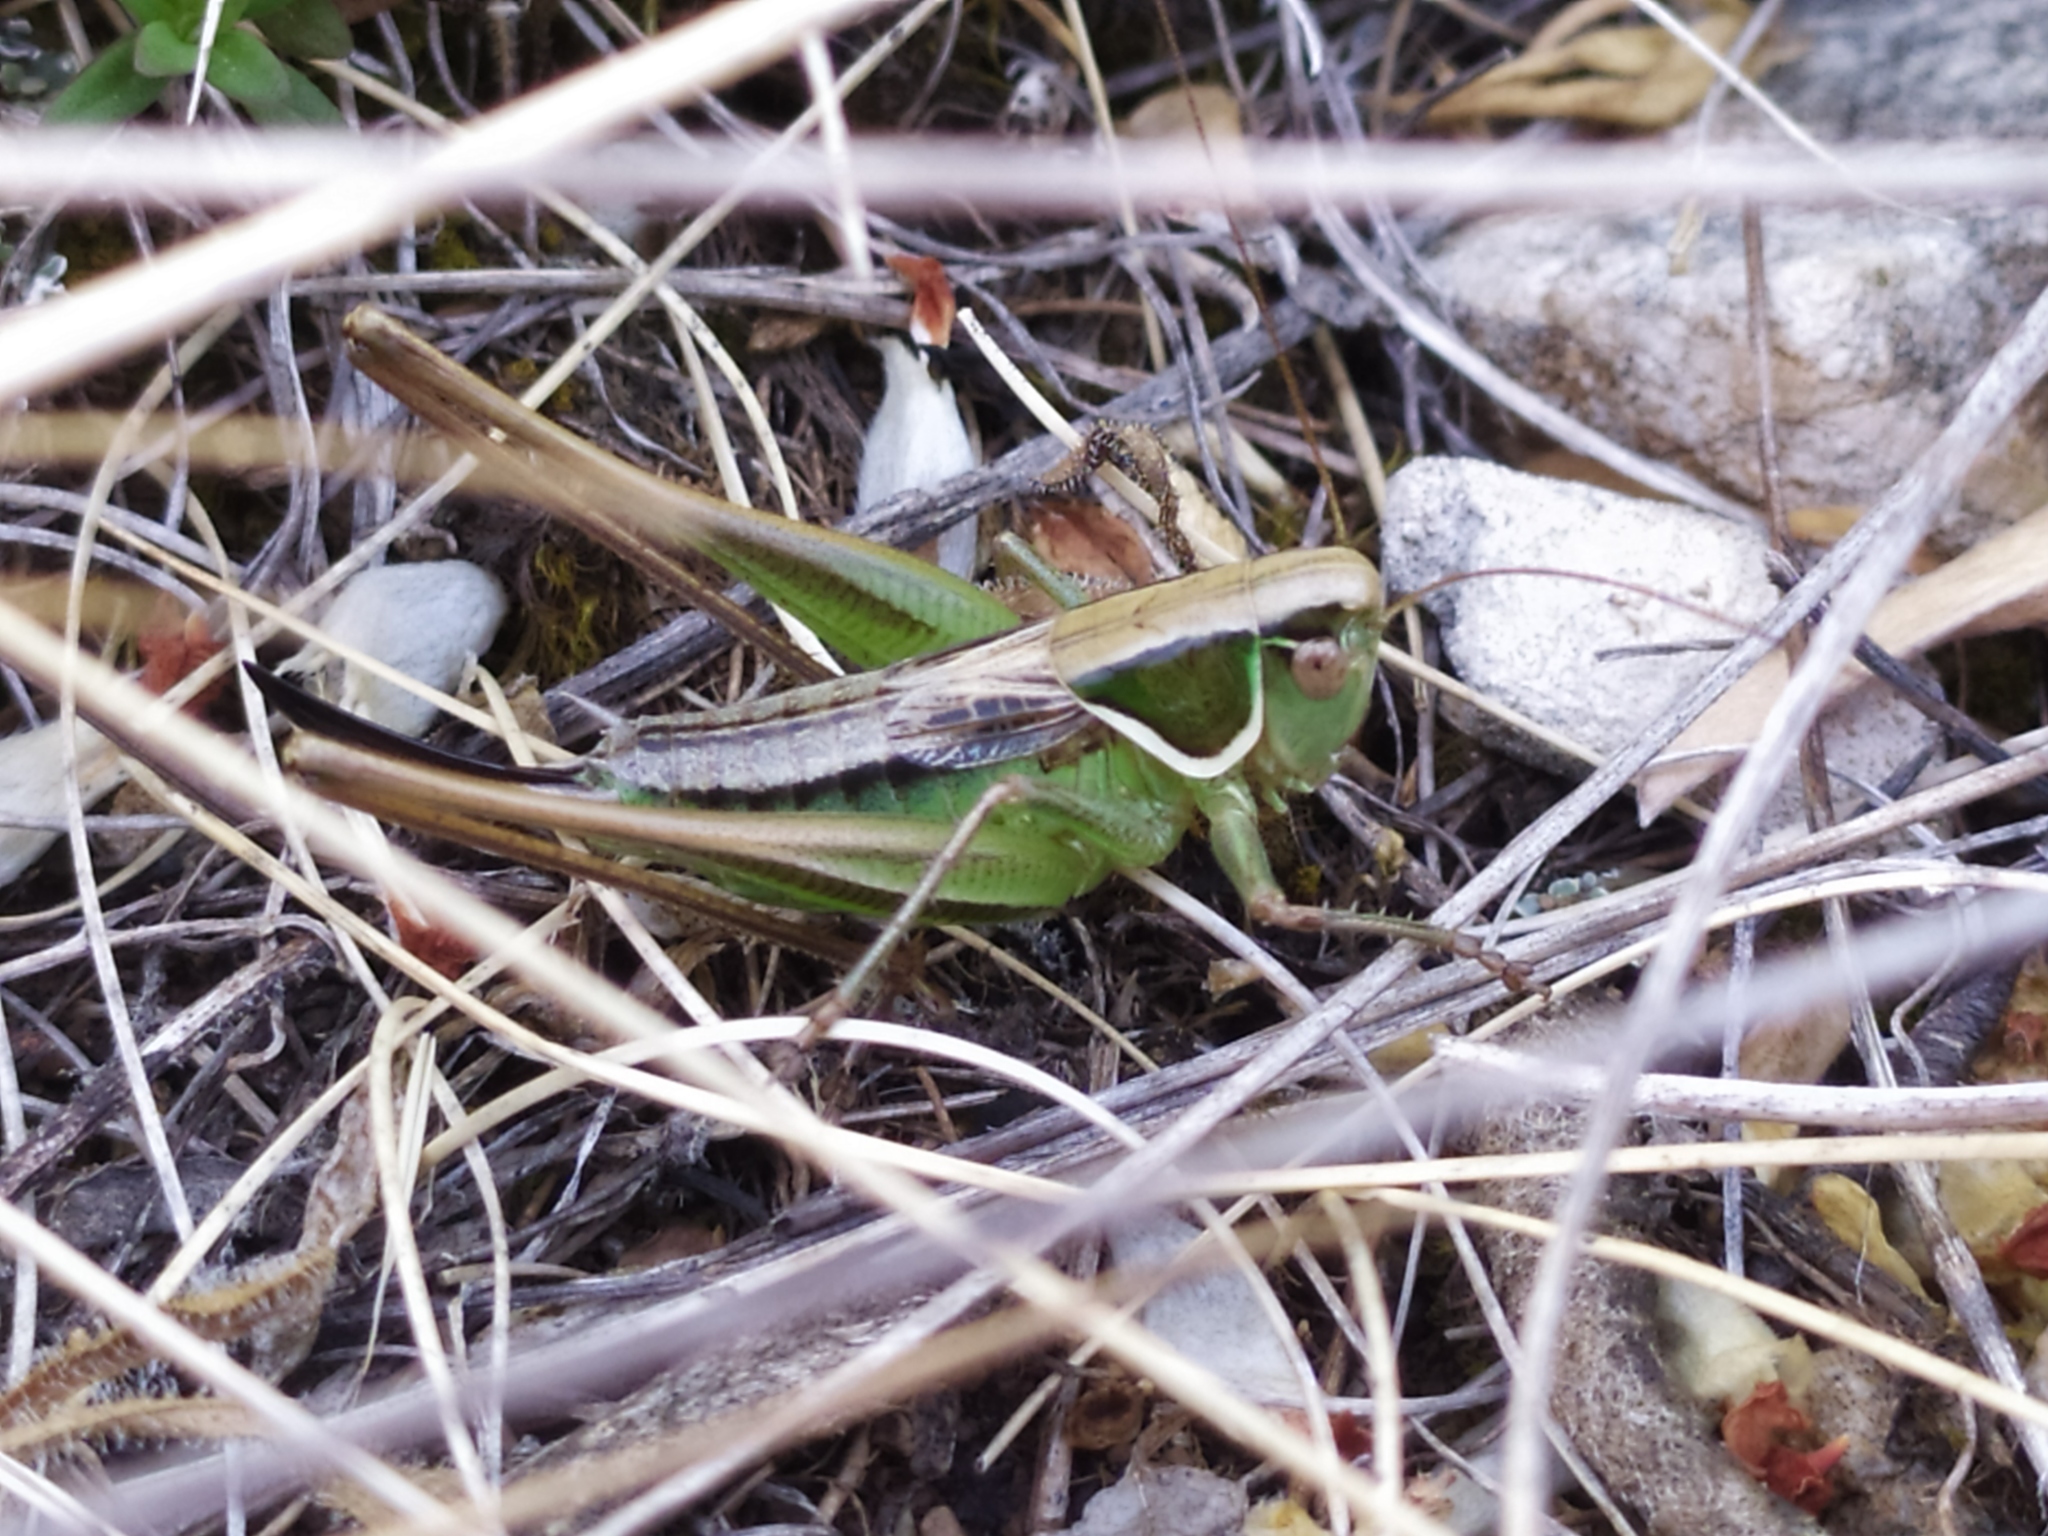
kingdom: Animalia
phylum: Arthropoda
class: Insecta
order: Orthoptera
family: Tettigoniidae
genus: Modestana
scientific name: Modestana modesta
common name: Common modest bush-cricket
